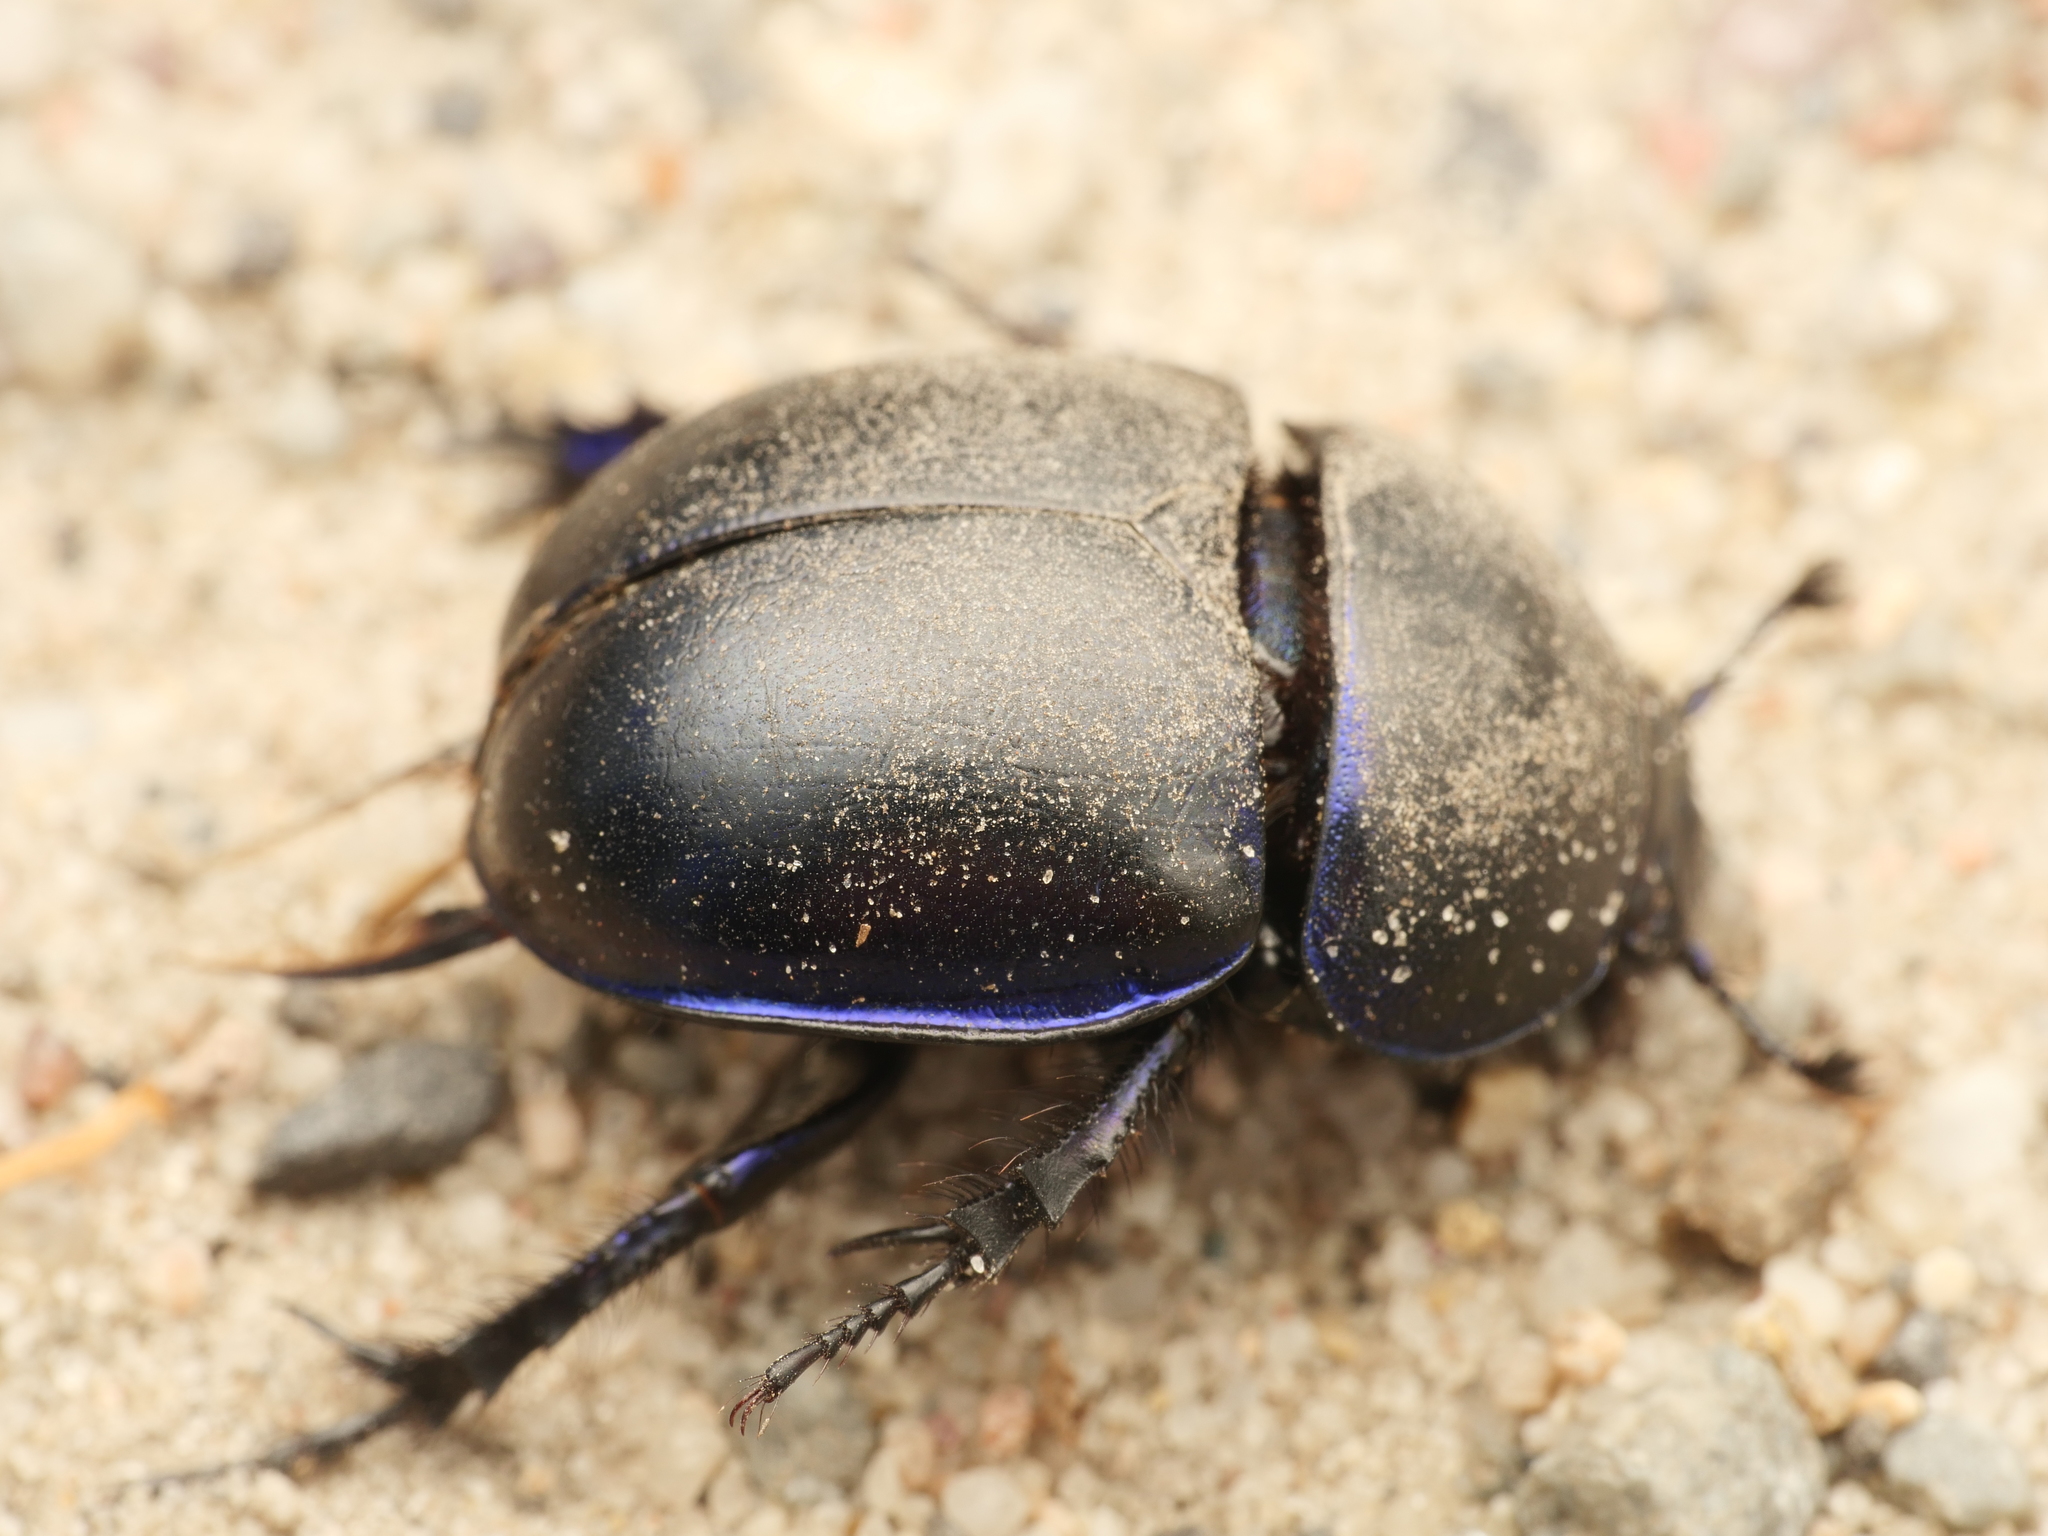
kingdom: Animalia
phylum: Arthropoda
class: Insecta
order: Coleoptera
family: Geotrupidae
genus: Trypocopris
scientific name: Trypocopris vernalis
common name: Spring dumbledor
